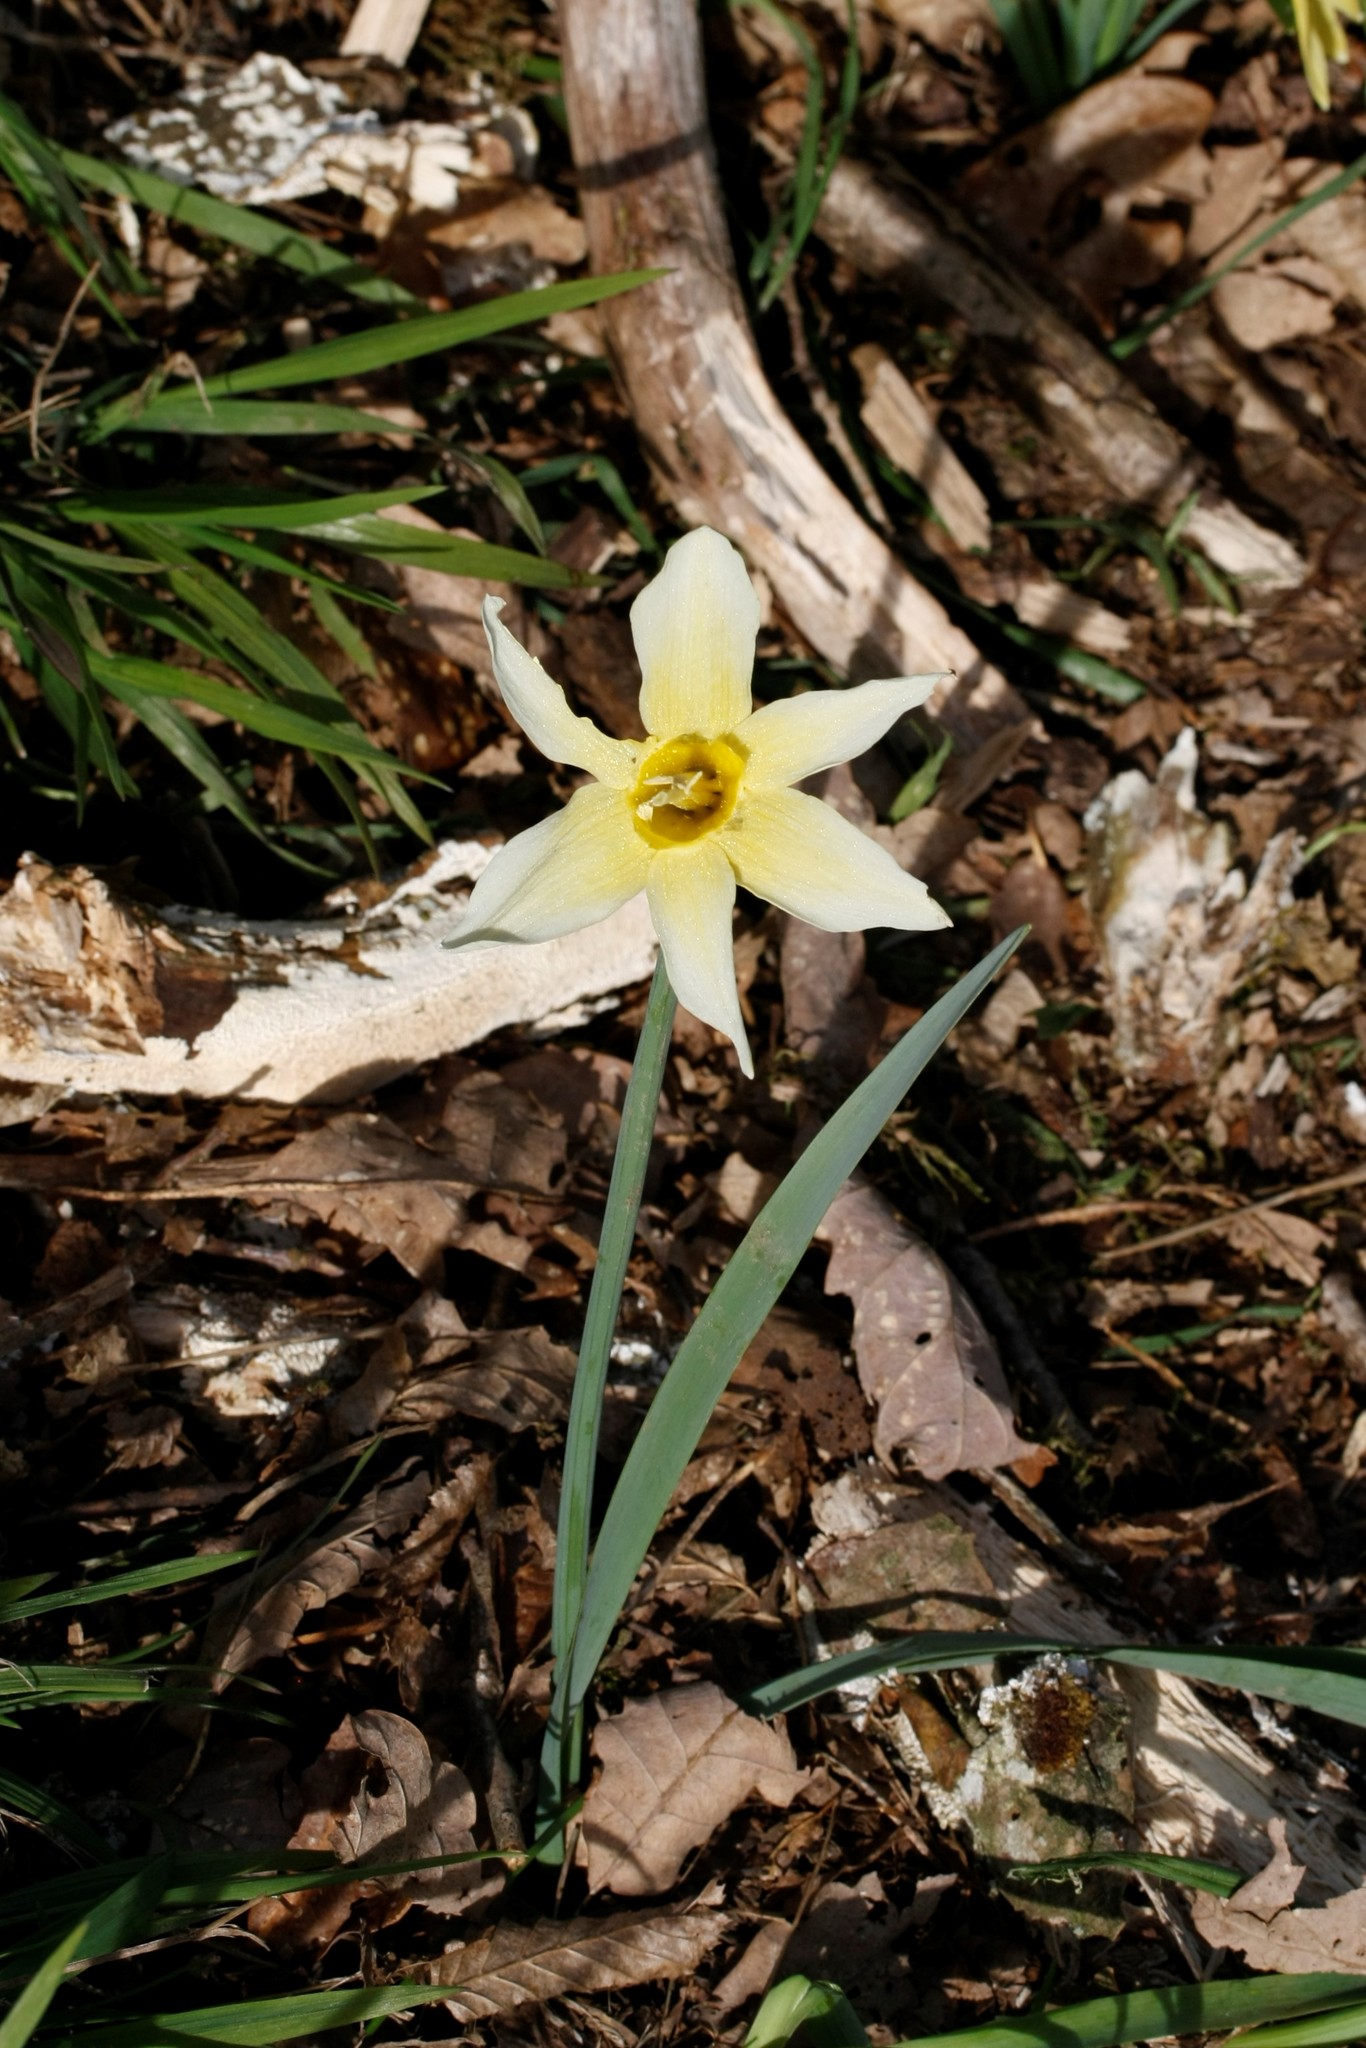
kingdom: Plantae
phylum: Tracheophyta
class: Liliopsida
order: Asparagales
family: Amaryllidaceae
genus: Narcissus
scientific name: Narcissus pseudonarcissus
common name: Daffodil
